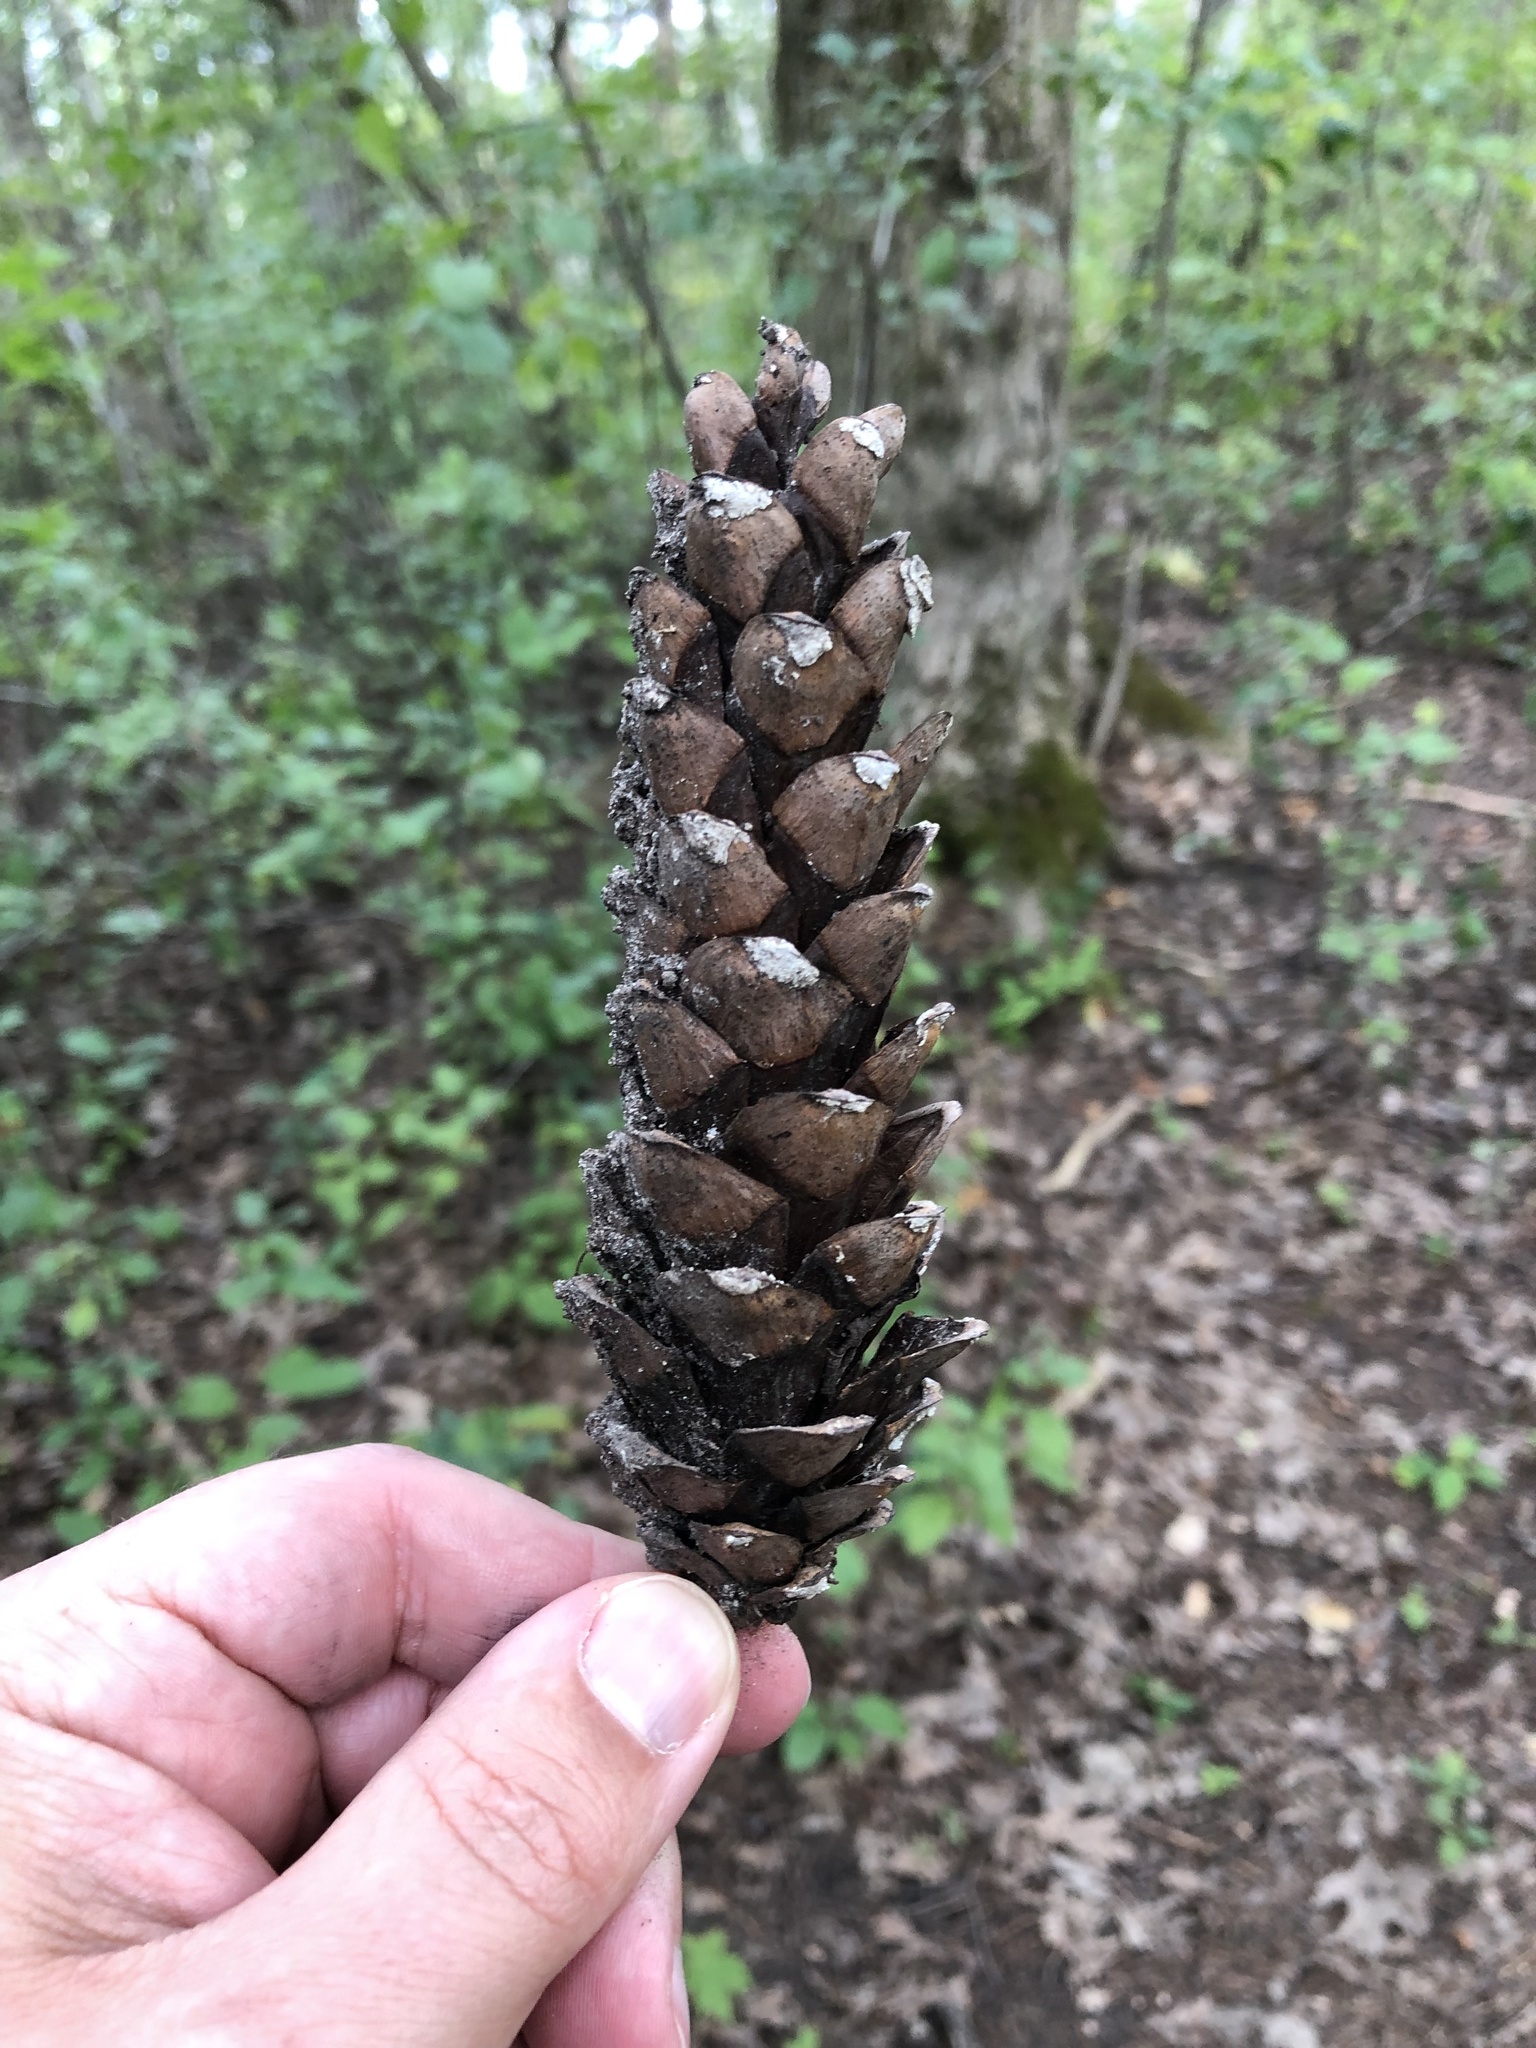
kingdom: Plantae
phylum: Tracheophyta
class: Pinopsida
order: Pinales
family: Pinaceae
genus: Pinus
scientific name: Pinus strobus
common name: Weymouth pine
